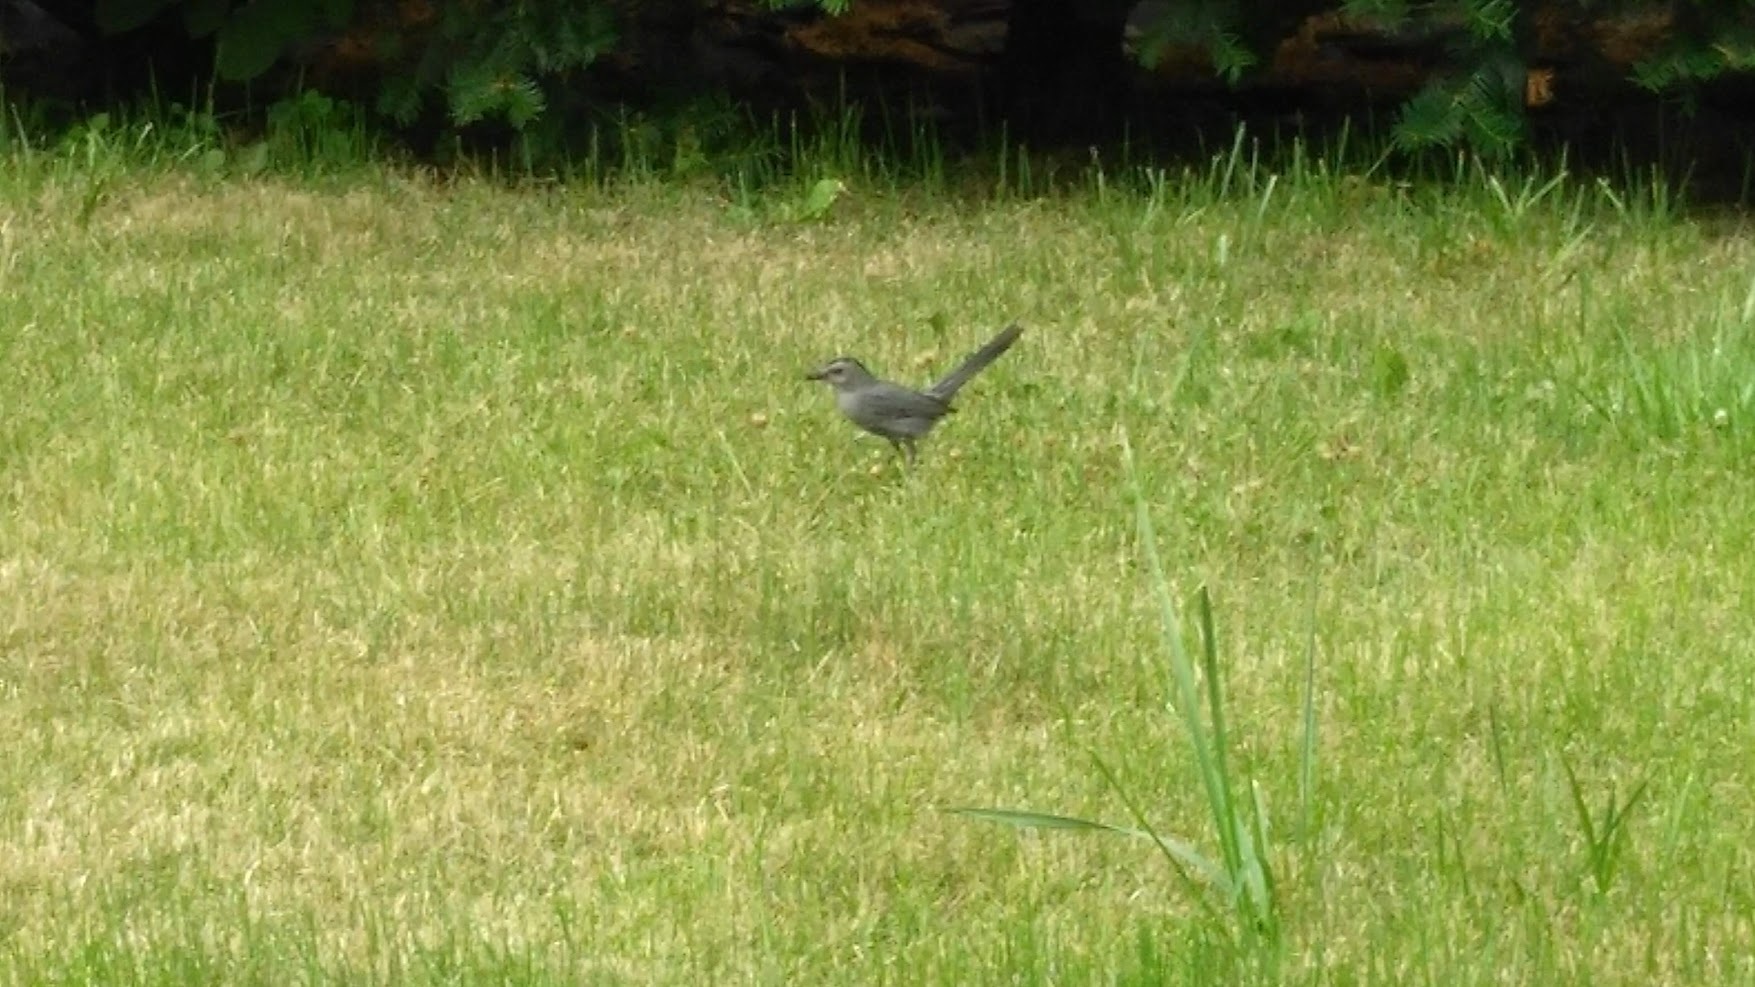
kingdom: Animalia
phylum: Chordata
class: Aves
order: Passeriformes
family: Mimidae
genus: Dumetella
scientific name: Dumetella carolinensis
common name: Gray catbird
